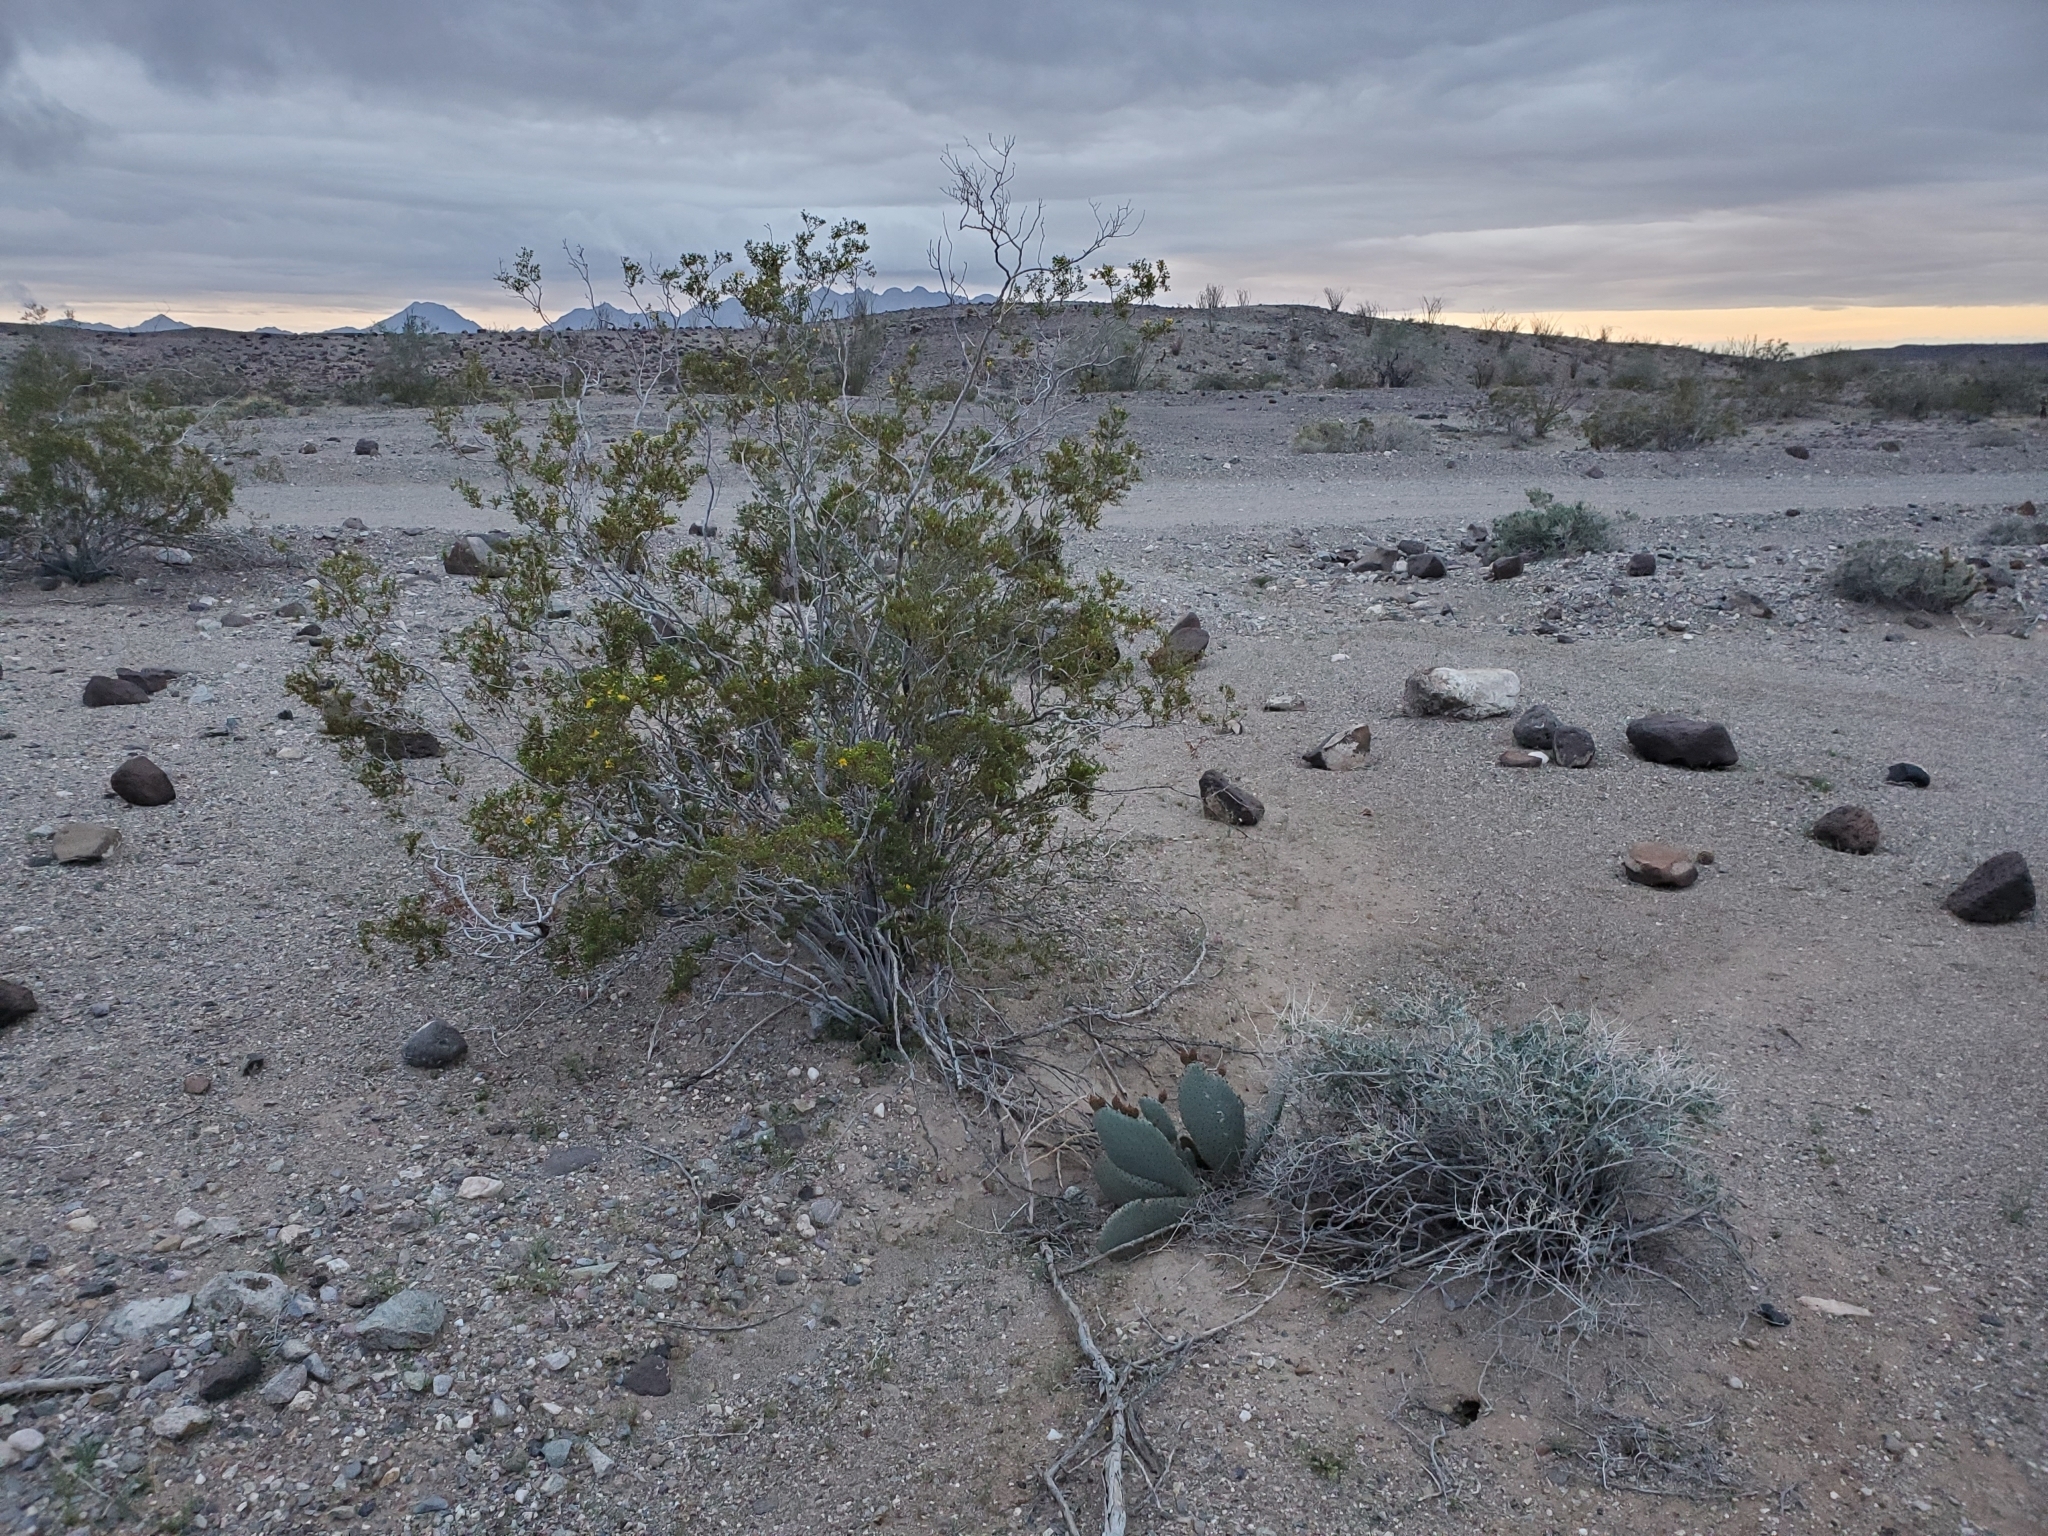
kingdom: Plantae
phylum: Tracheophyta
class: Magnoliopsida
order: Zygophyllales
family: Zygophyllaceae
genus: Larrea
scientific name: Larrea tridentata
